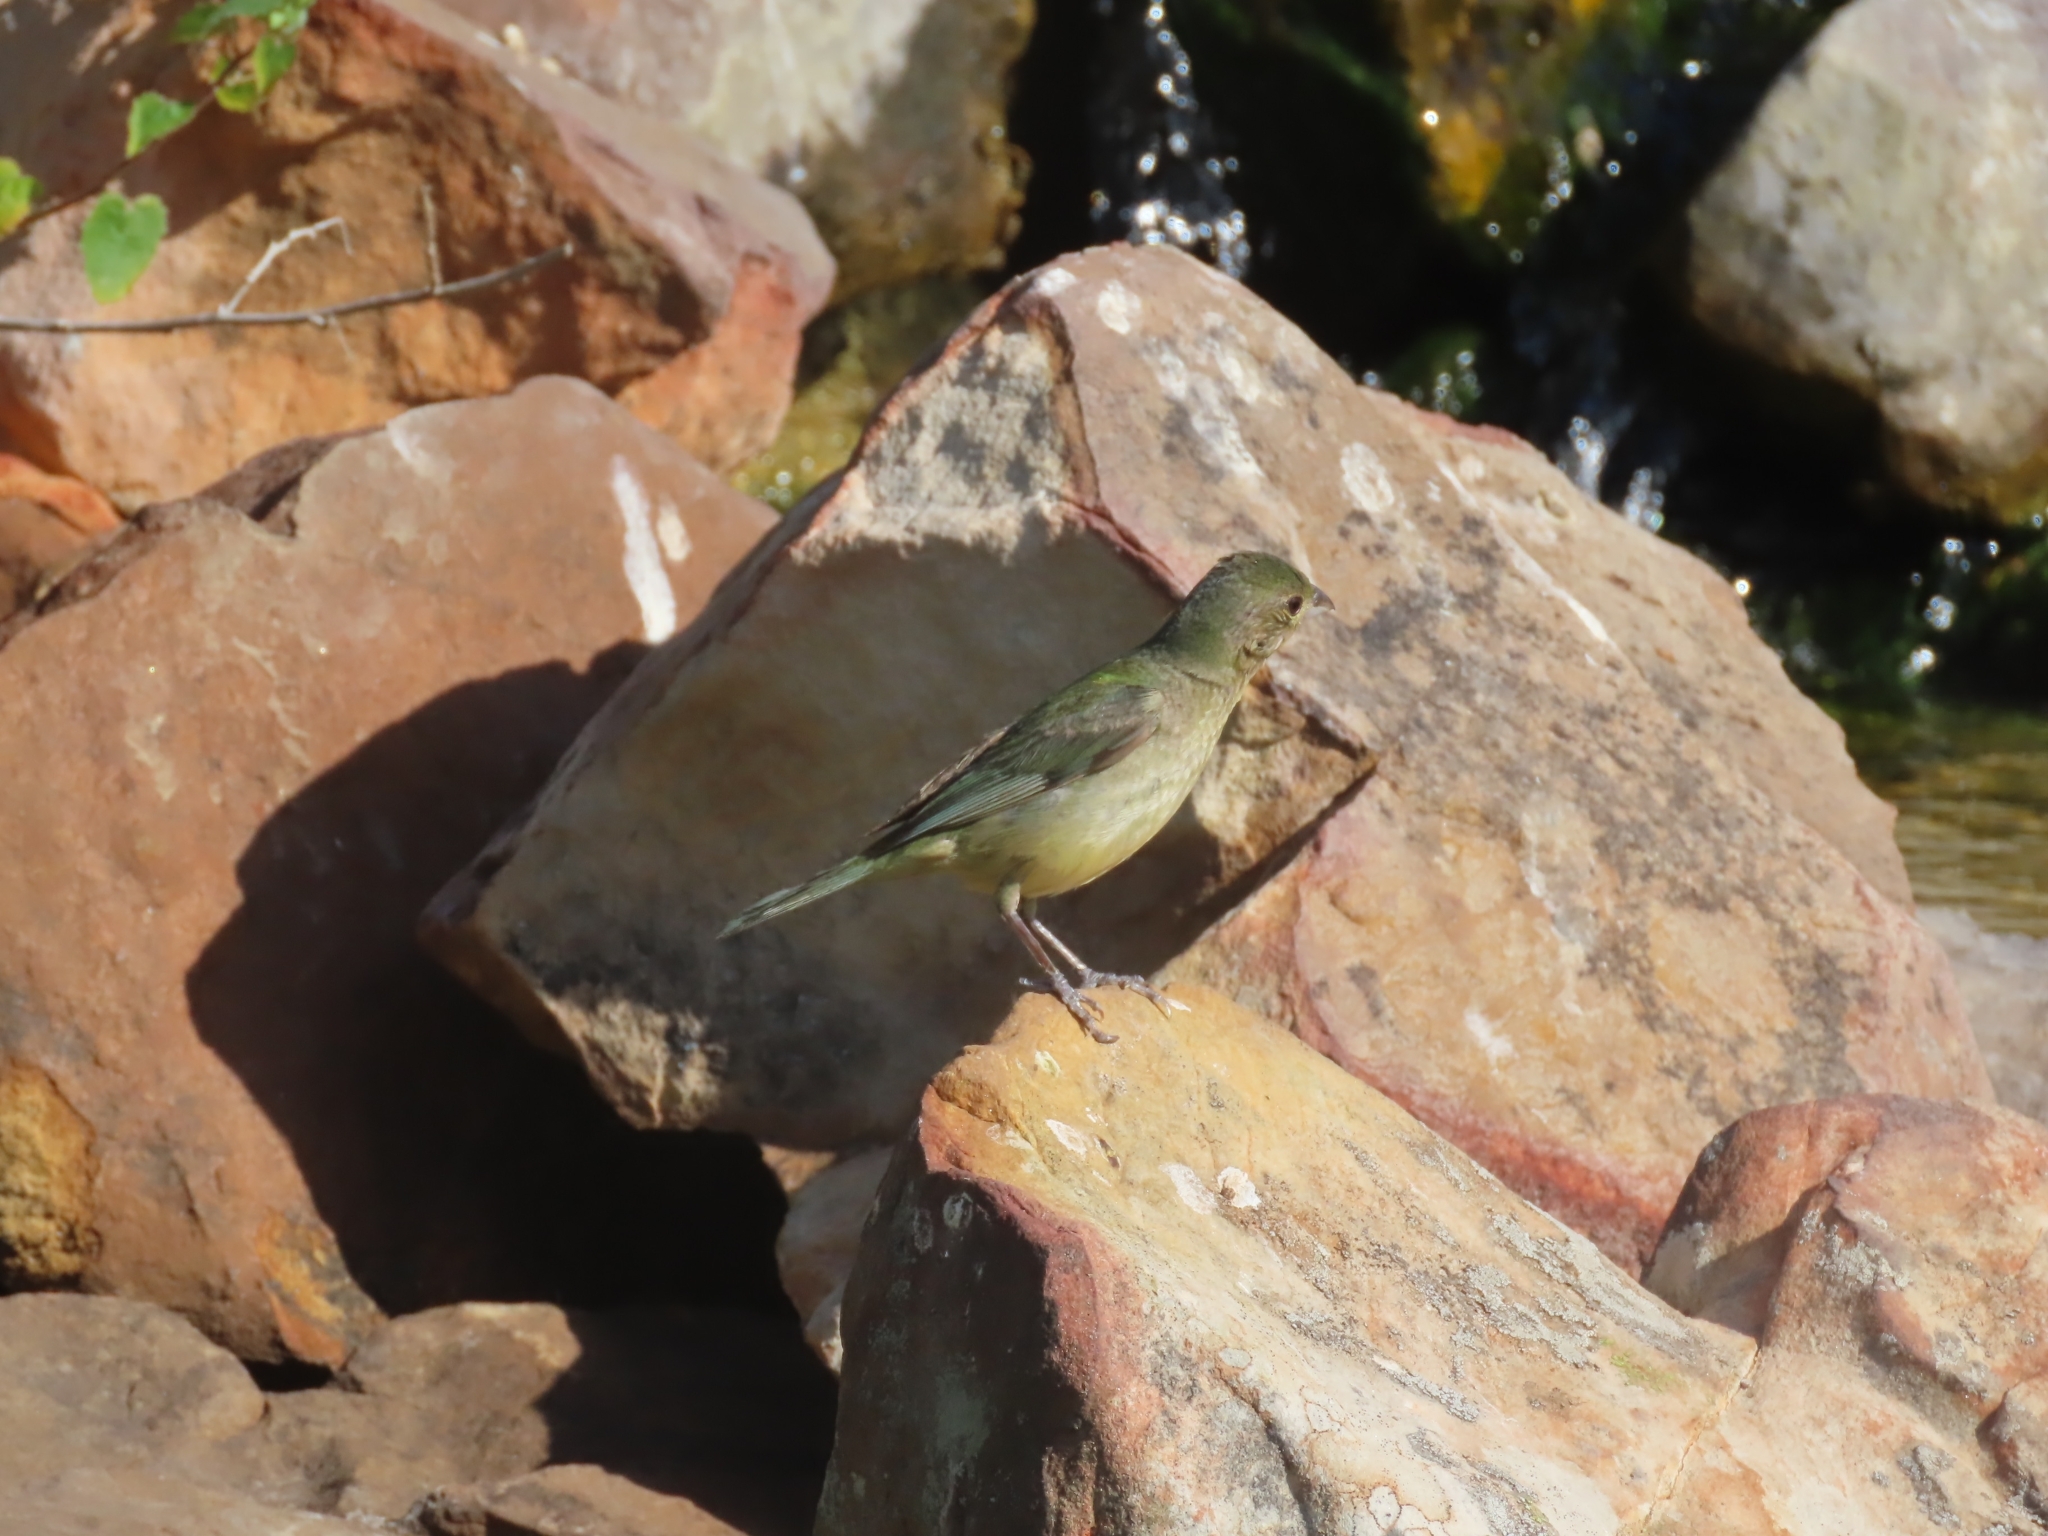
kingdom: Animalia
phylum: Chordata
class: Aves
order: Passeriformes
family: Cardinalidae
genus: Passerina
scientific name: Passerina ciris
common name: Painted bunting
